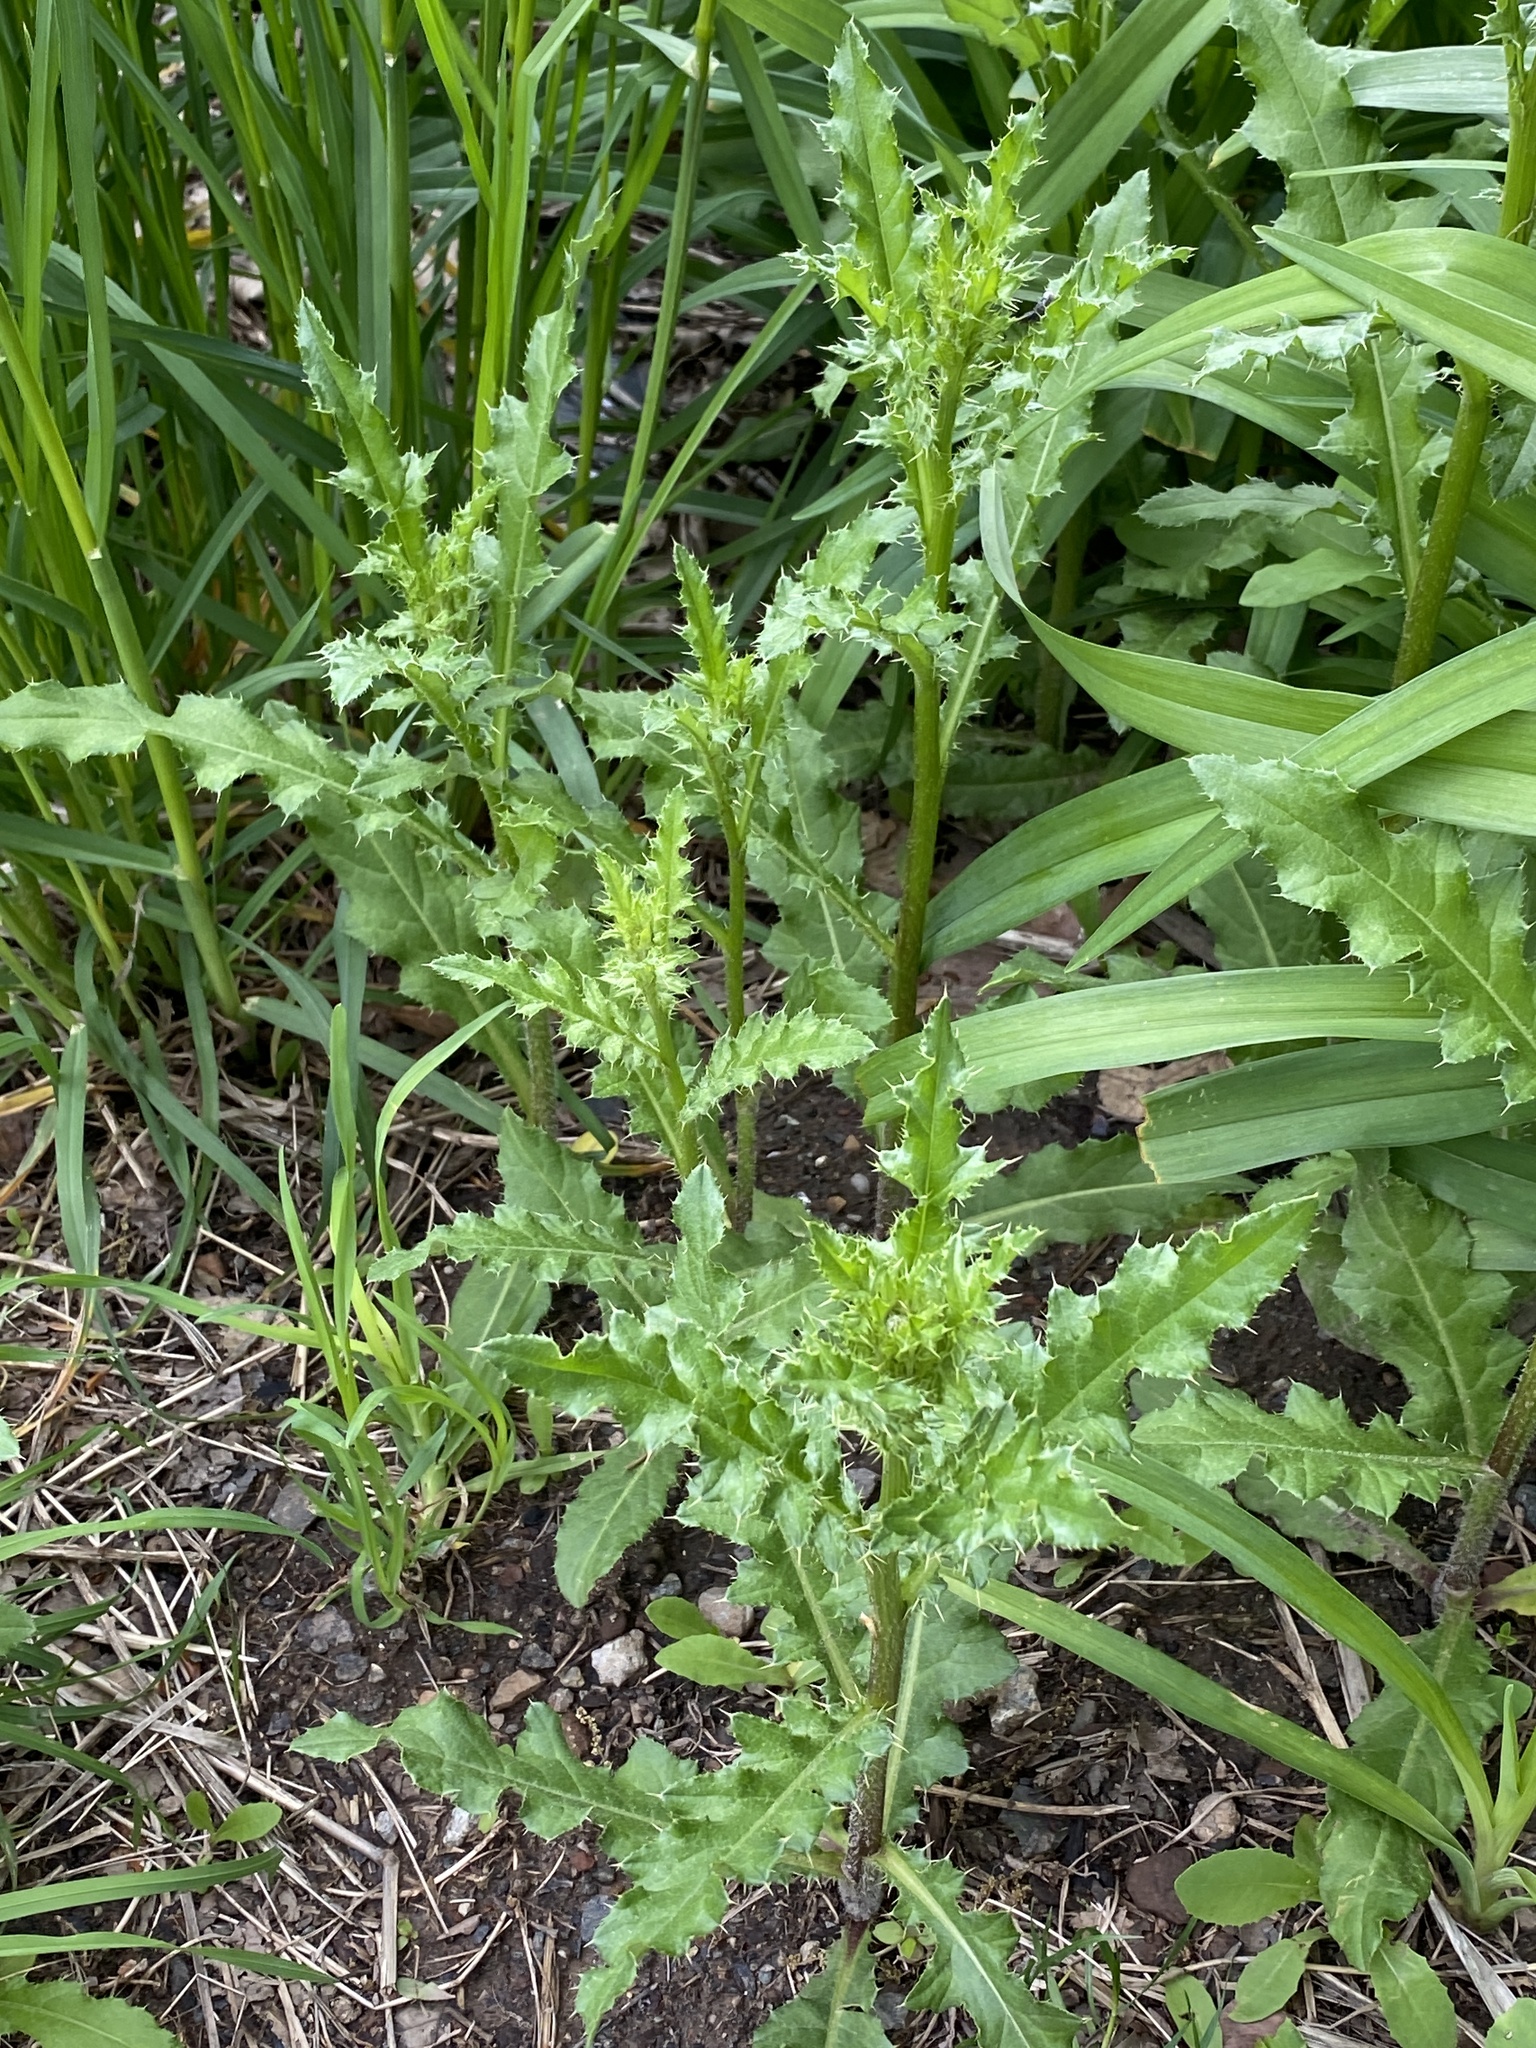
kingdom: Plantae
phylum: Tracheophyta
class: Magnoliopsida
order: Asterales
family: Asteraceae
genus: Cirsium
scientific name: Cirsium arvense
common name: Creeping thistle
